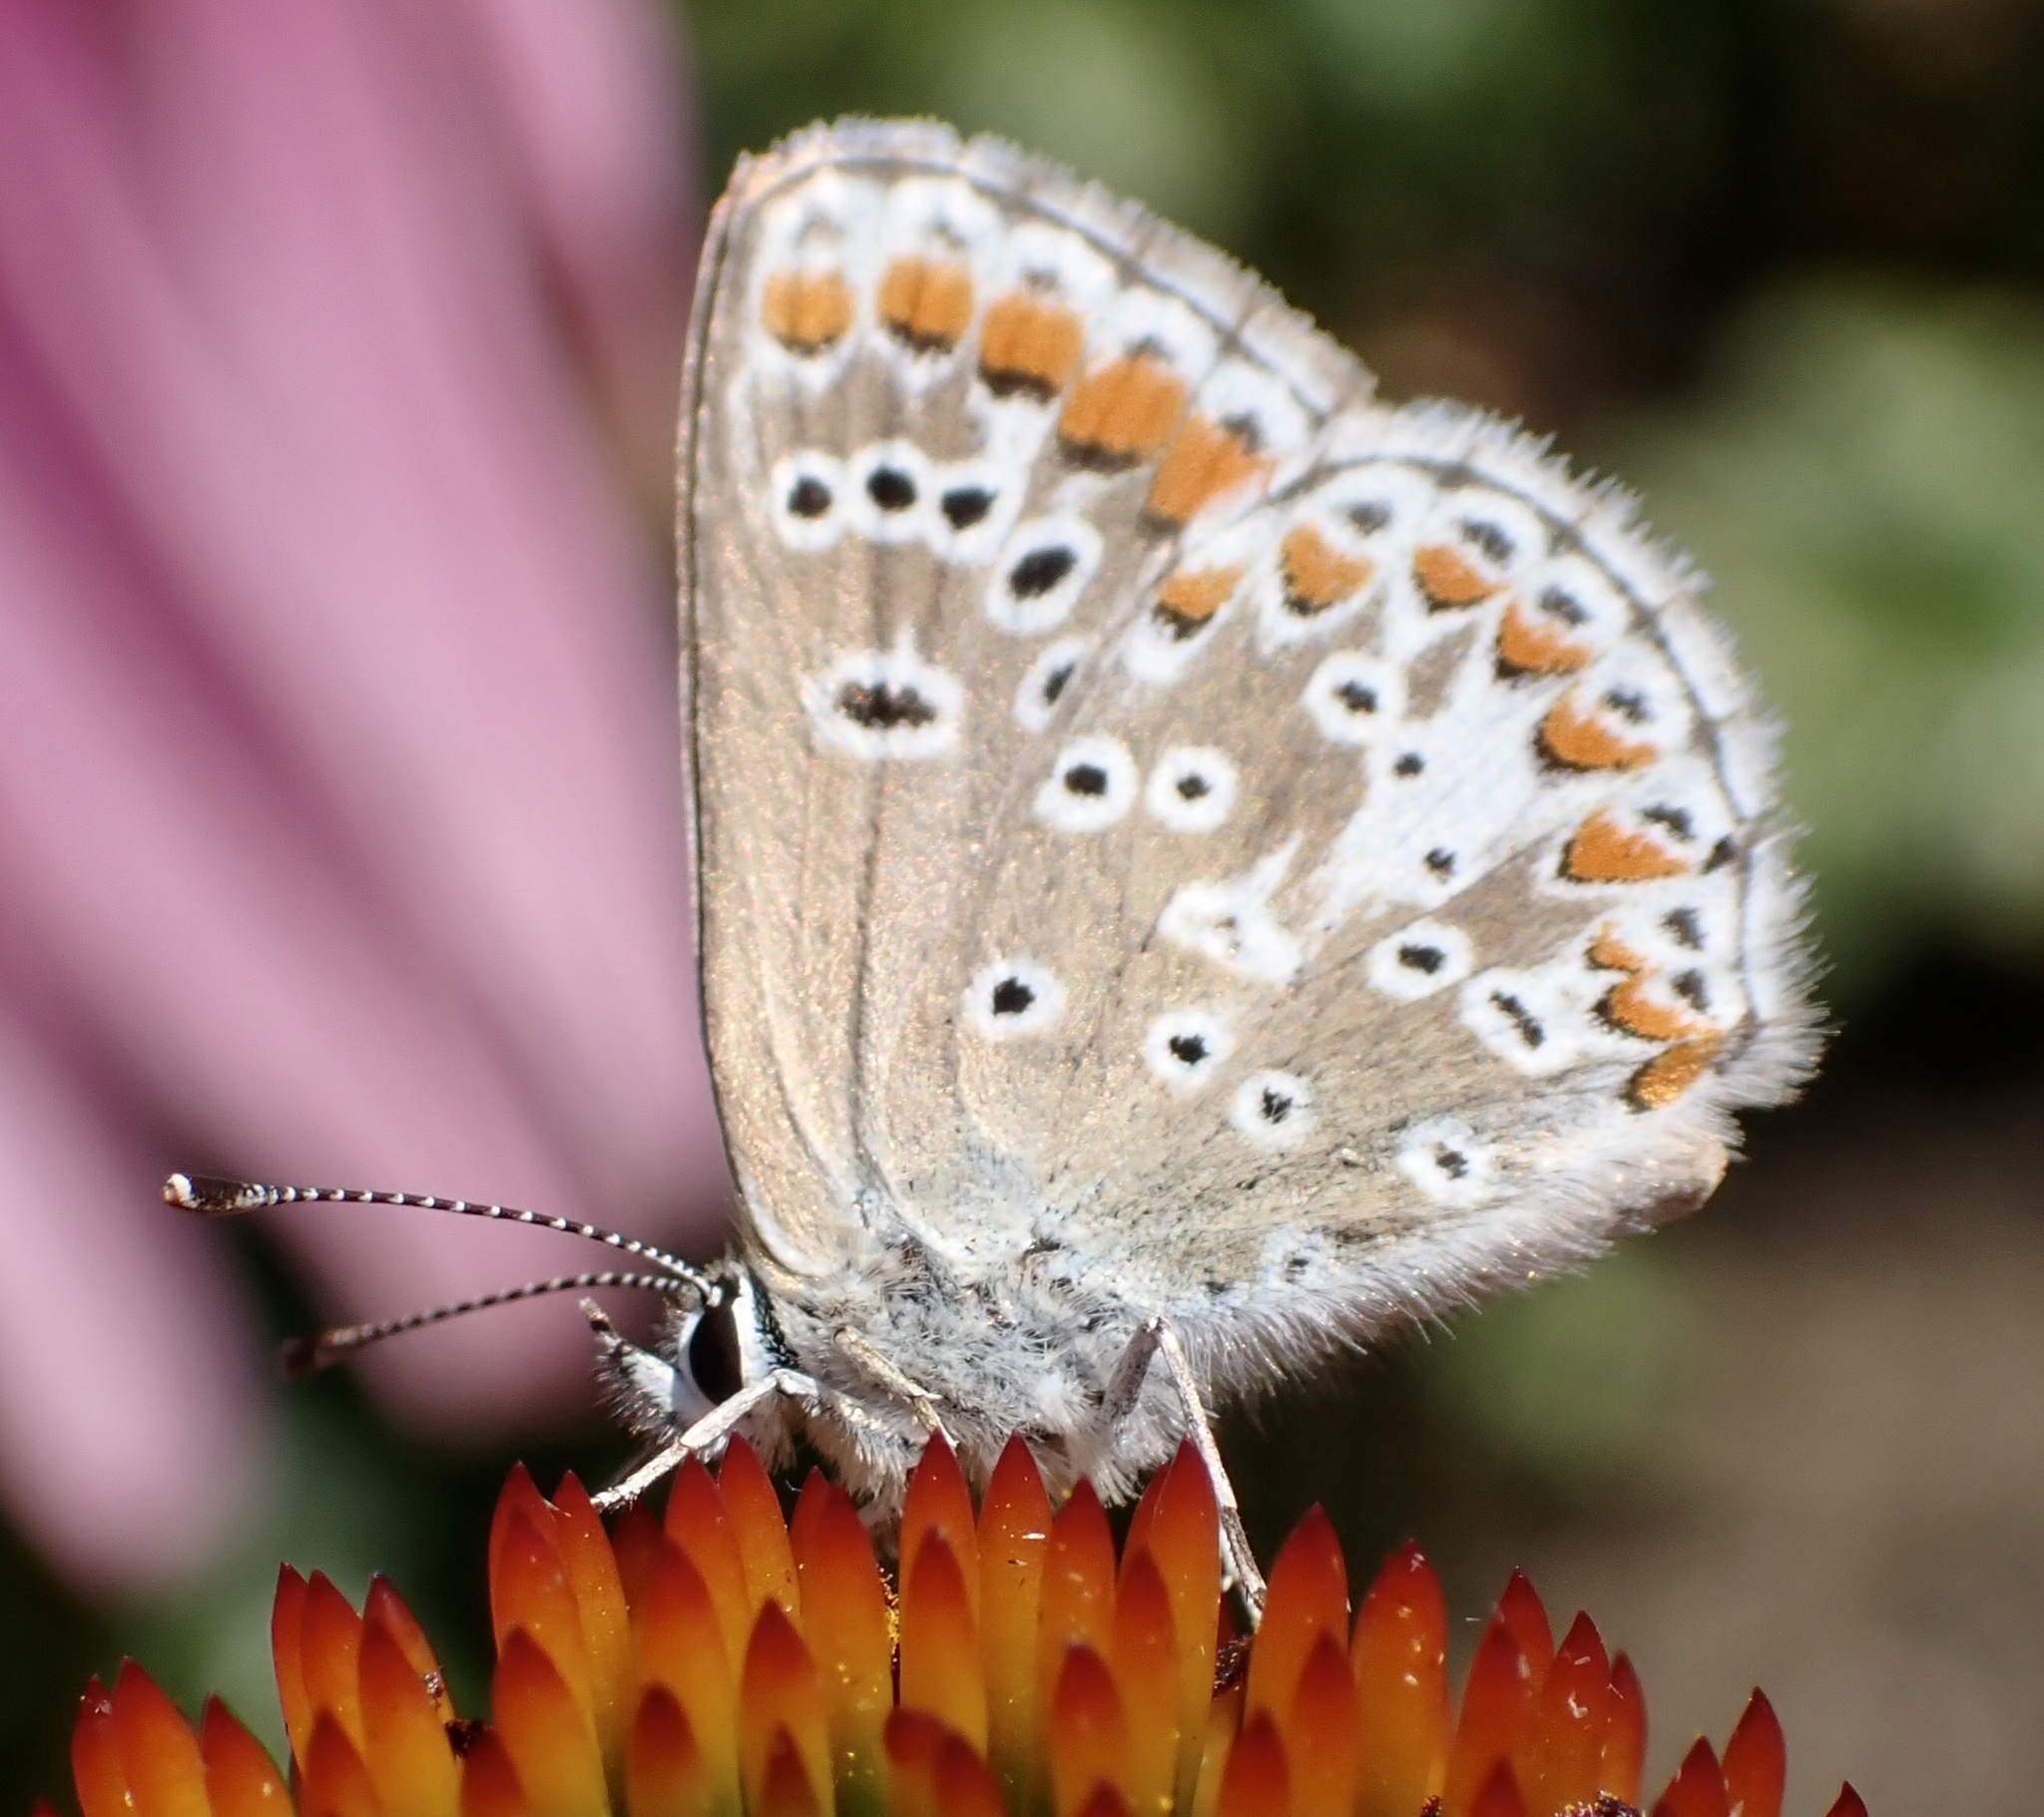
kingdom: Animalia
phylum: Arthropoda
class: Insecta
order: Lepidoptera
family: Lycaenidae
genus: Aricia
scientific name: Aricia agestis
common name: Brown argus
